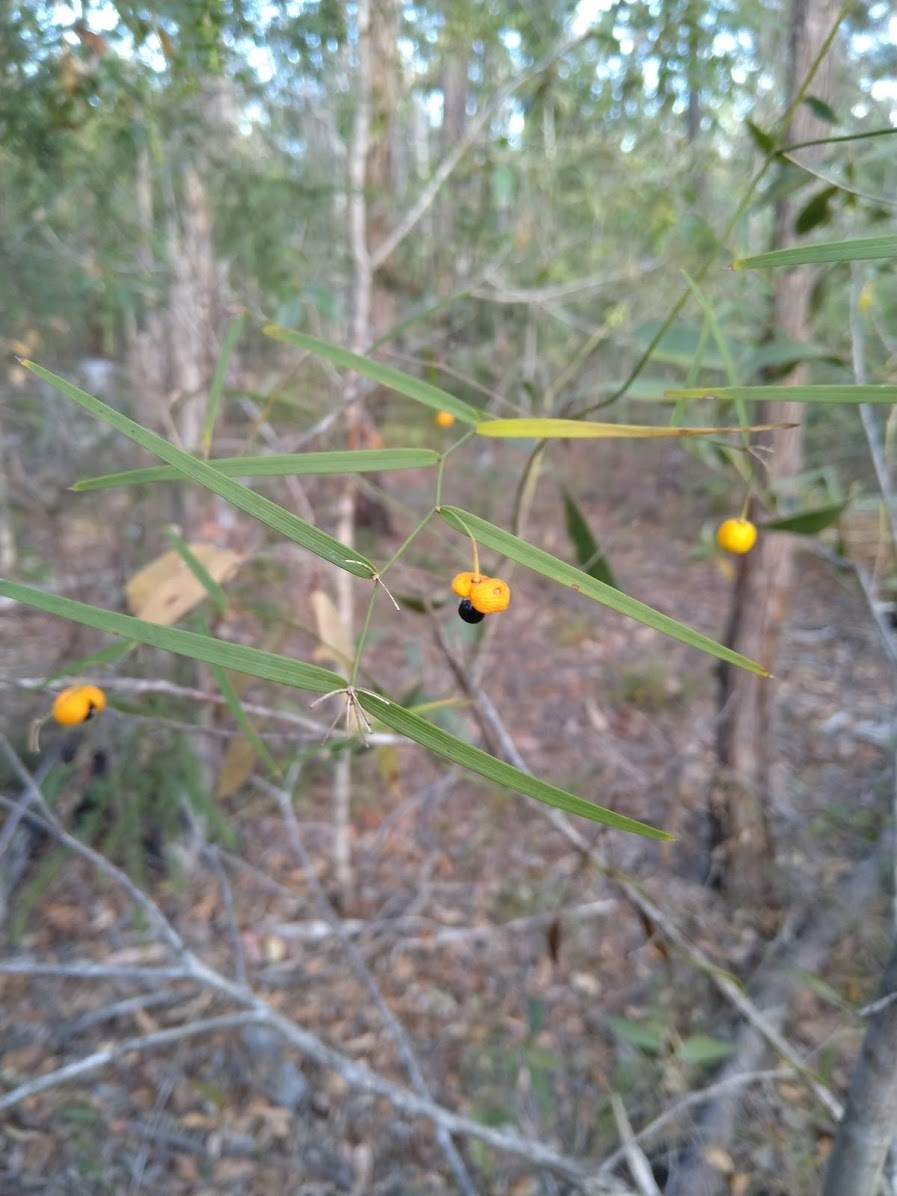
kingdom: Plantae
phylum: Tracheophyta
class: Liliopsida
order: Asparagales
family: Asparagaceae
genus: Eustrephus
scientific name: Eustrephus latifolius
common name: Orangevine
